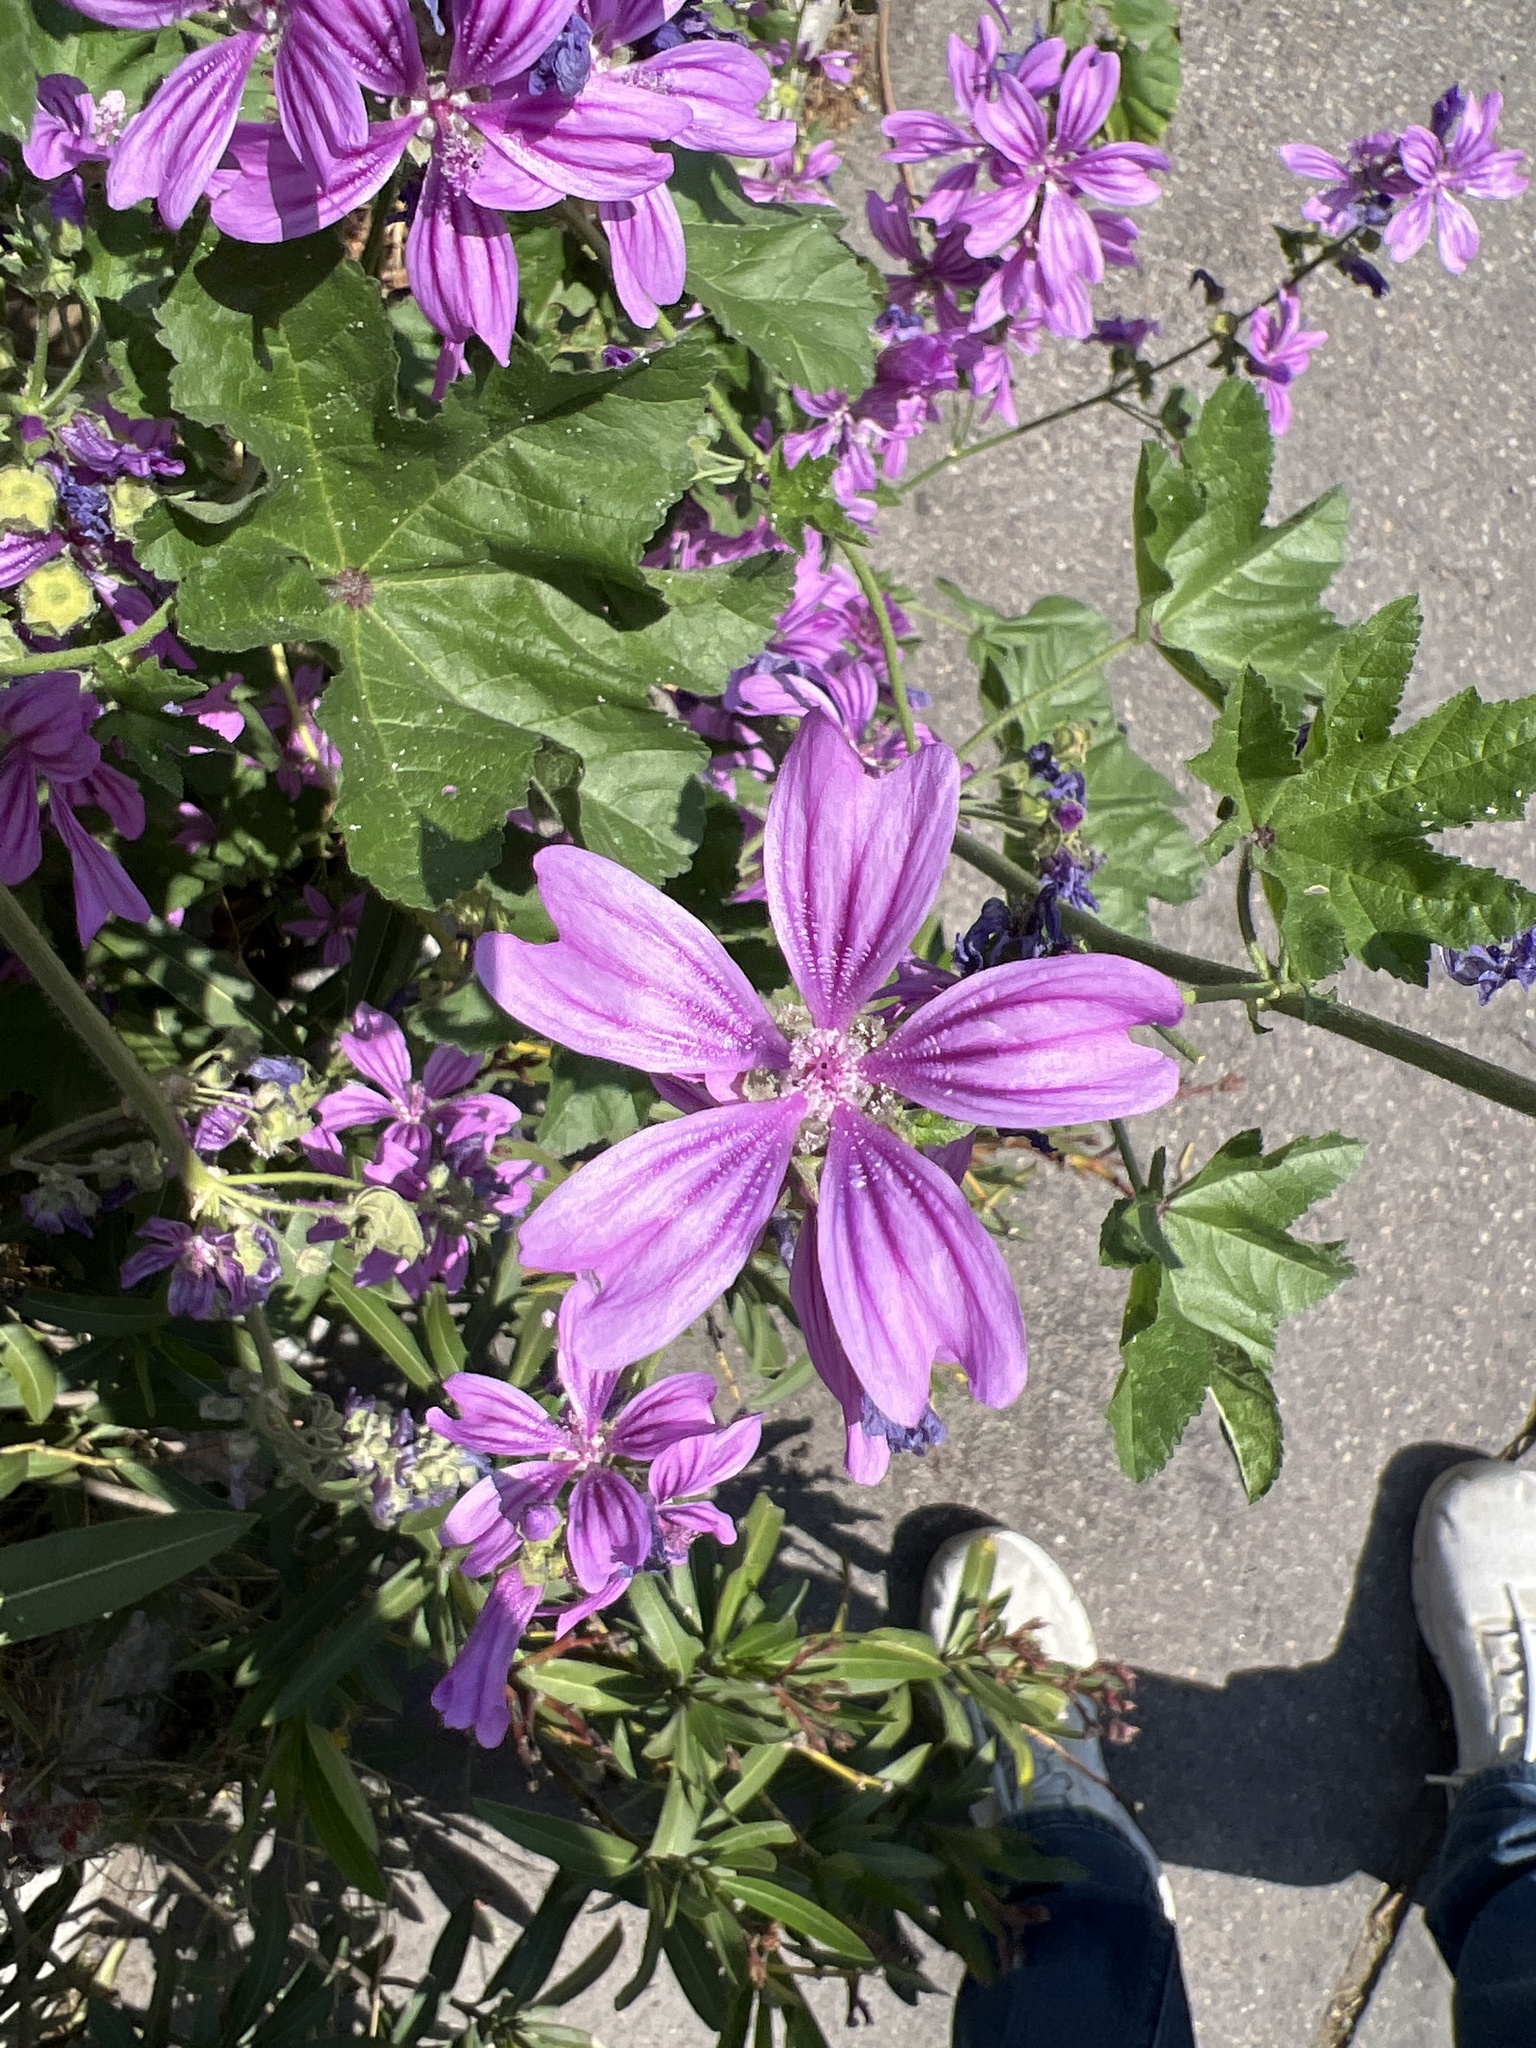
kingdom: Plantae
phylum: Tracheophyta
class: Magnoliopsida
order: Malvales
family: Malvaceae
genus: Malva
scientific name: Malva sylvestris
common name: Common mallow
